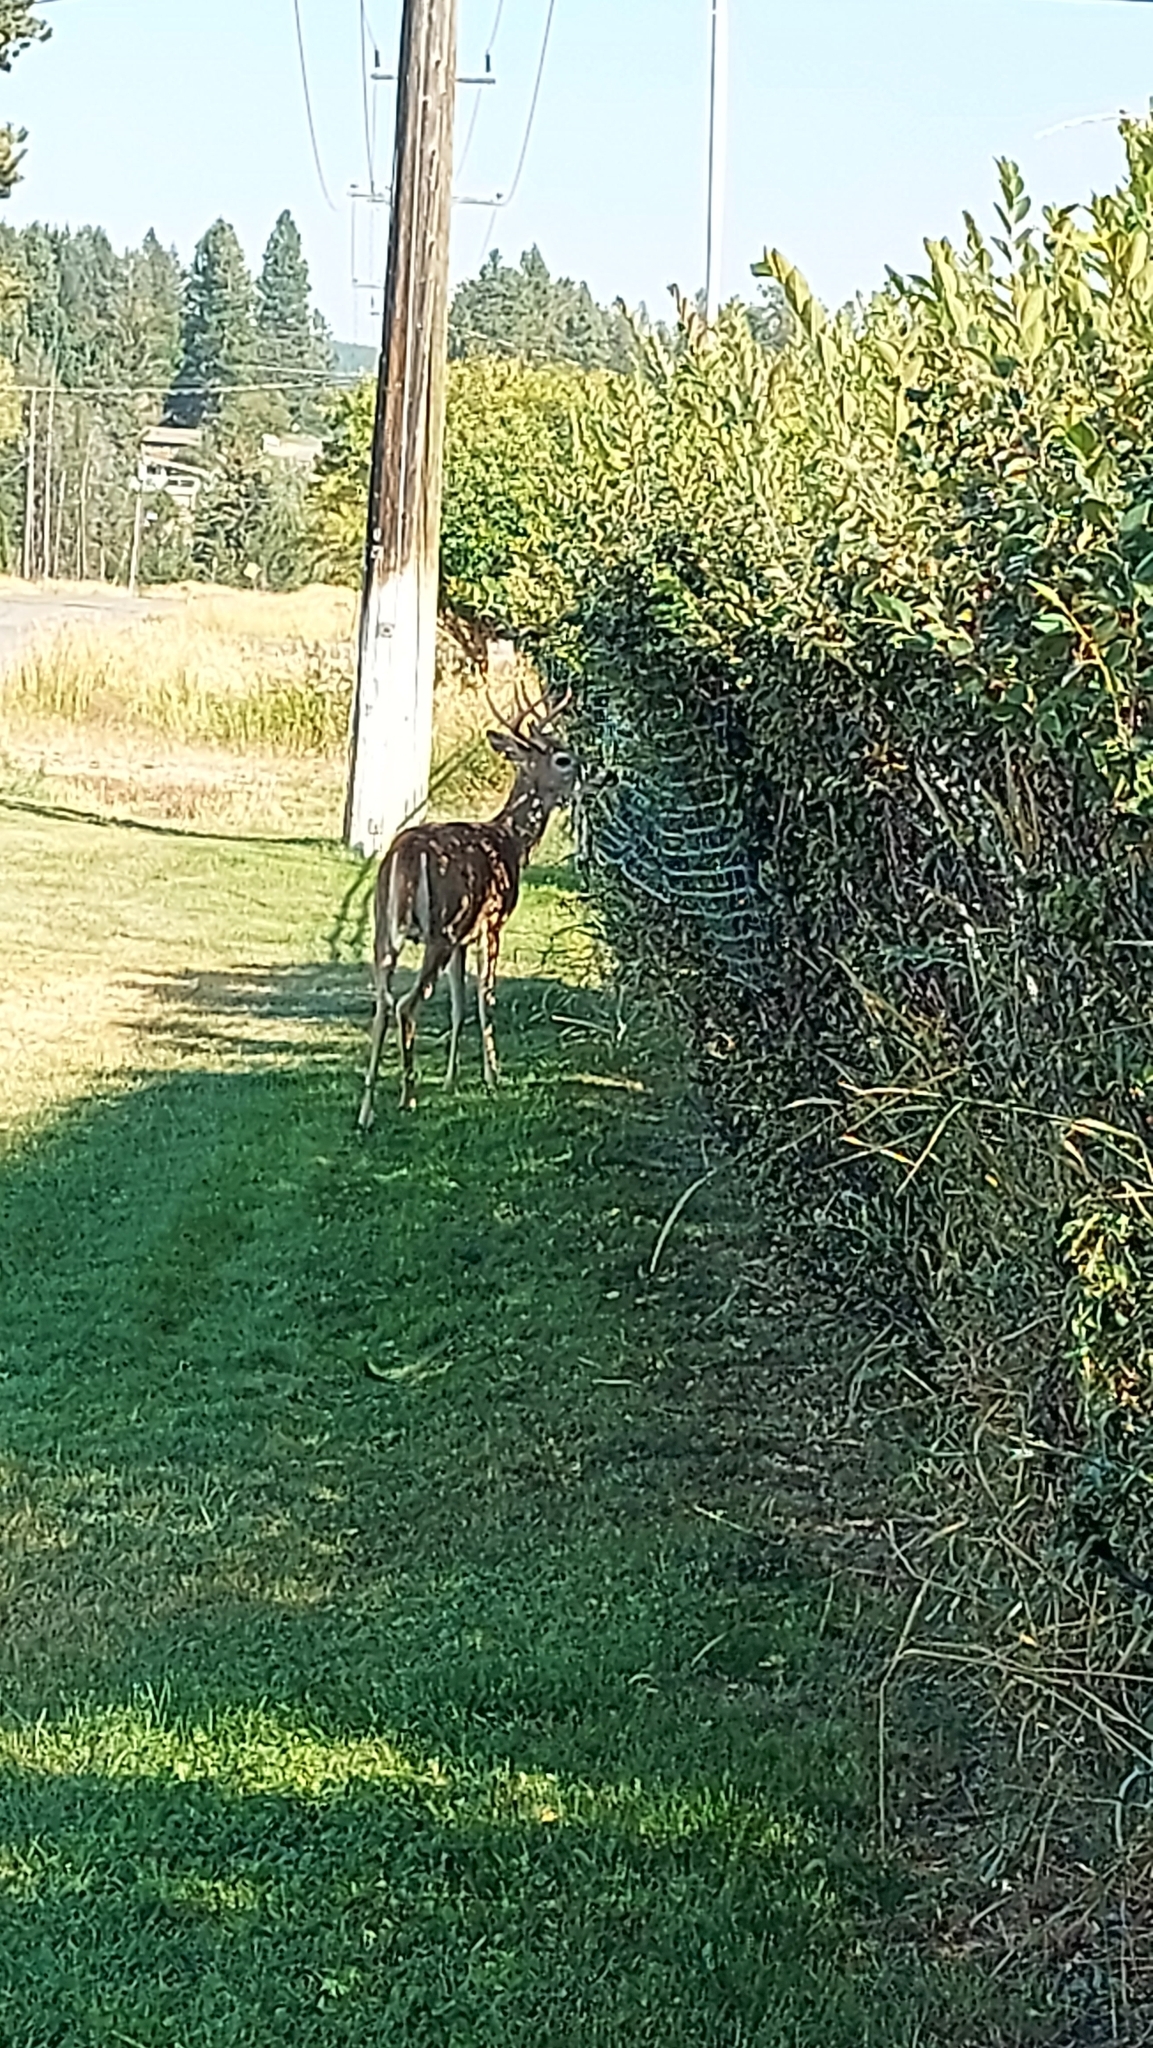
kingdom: Animalia
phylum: Chordata
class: Mammalia
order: Artiodactyla
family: Cervidae
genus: Odocoileus
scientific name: Odocoileus virginianus
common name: White-tailed deer
